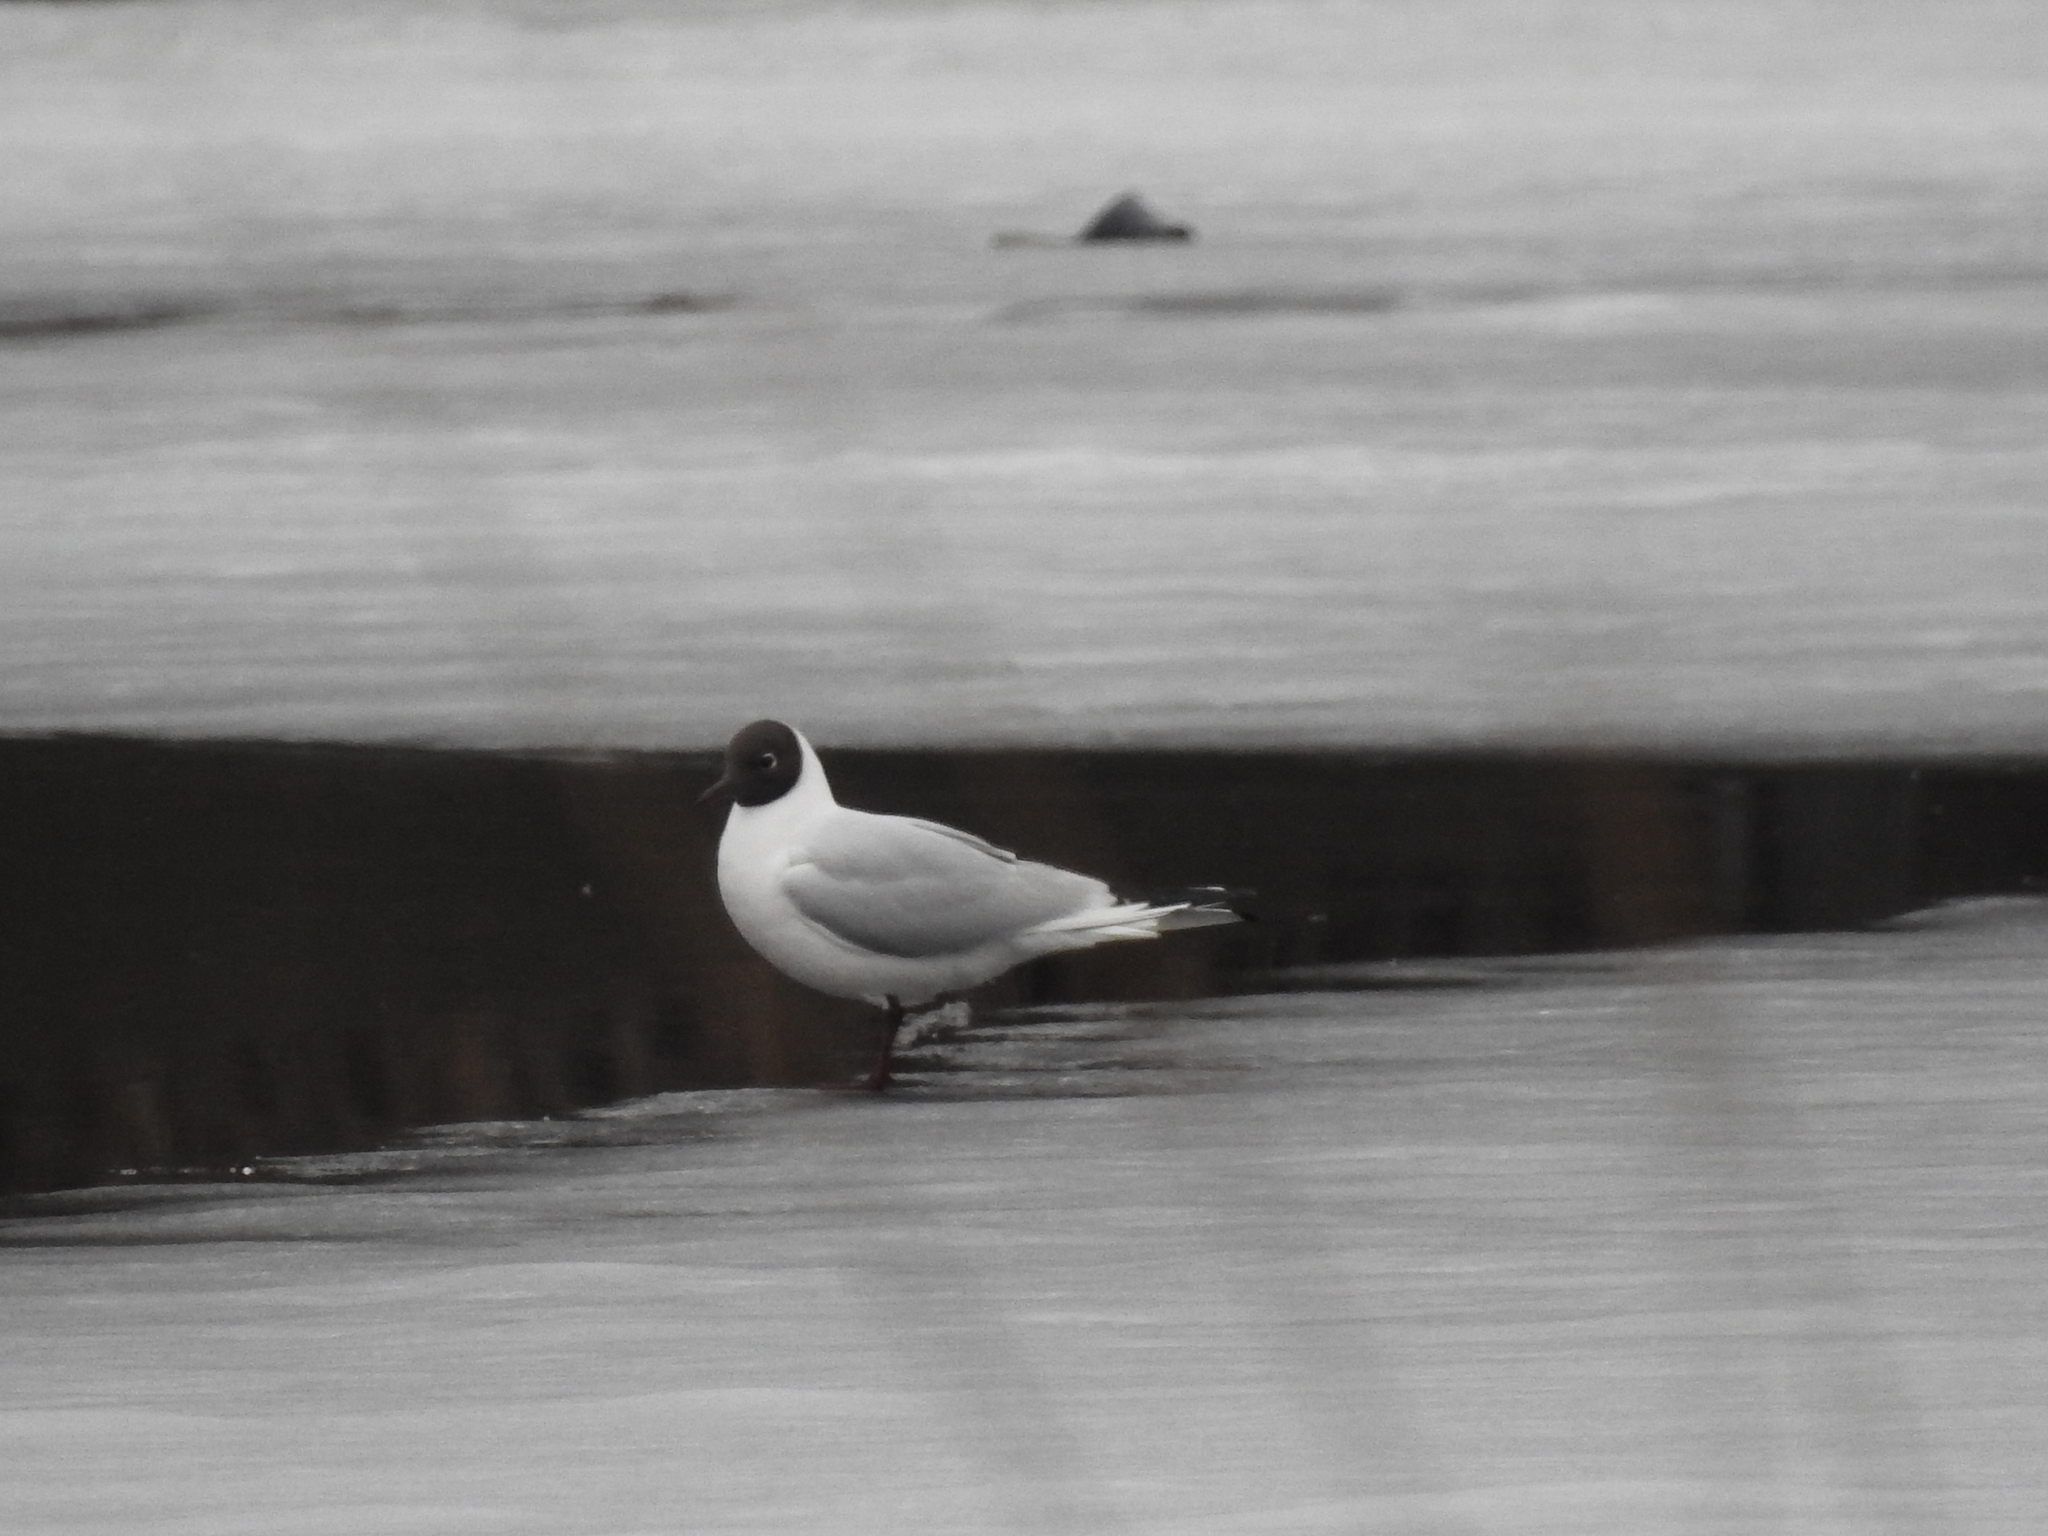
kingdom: Animalia
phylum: Chordata
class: Aves
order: Charadriiformes
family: Laridae
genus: Chroicocephalus
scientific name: Chroicocephalus ridibundus
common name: Black-headed gull
